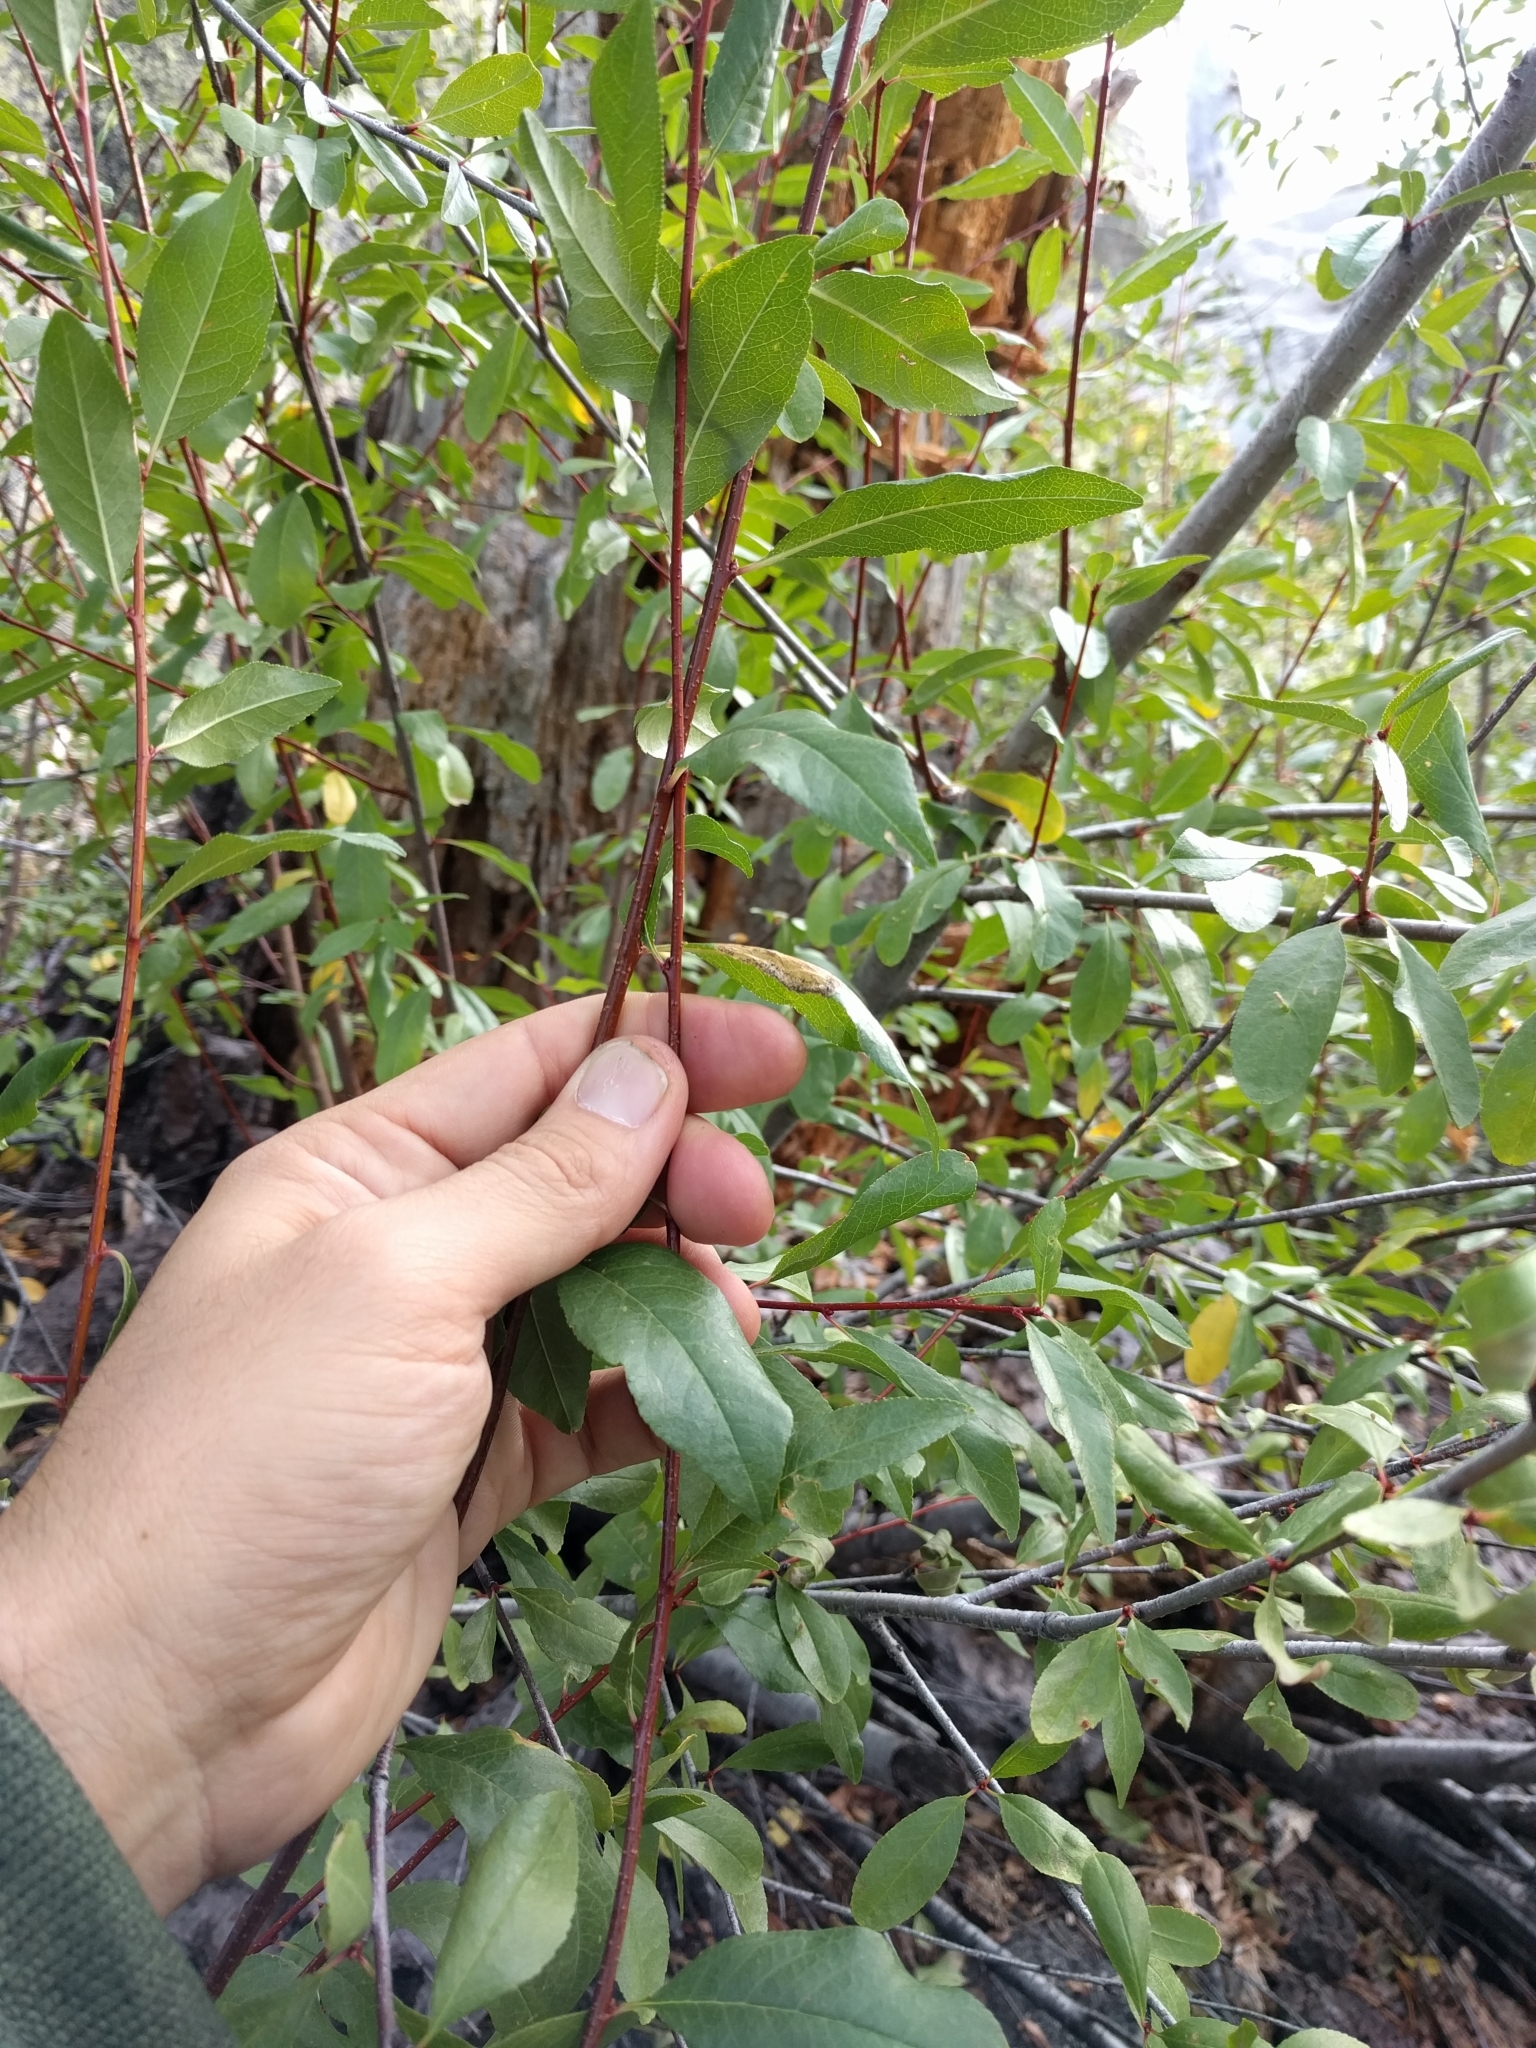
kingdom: Plantae
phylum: Tracheophyta
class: Magnoliopsida
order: Rosales
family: Rosaceae
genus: Prunus
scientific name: Prunus emarginata
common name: Bitter cherry
